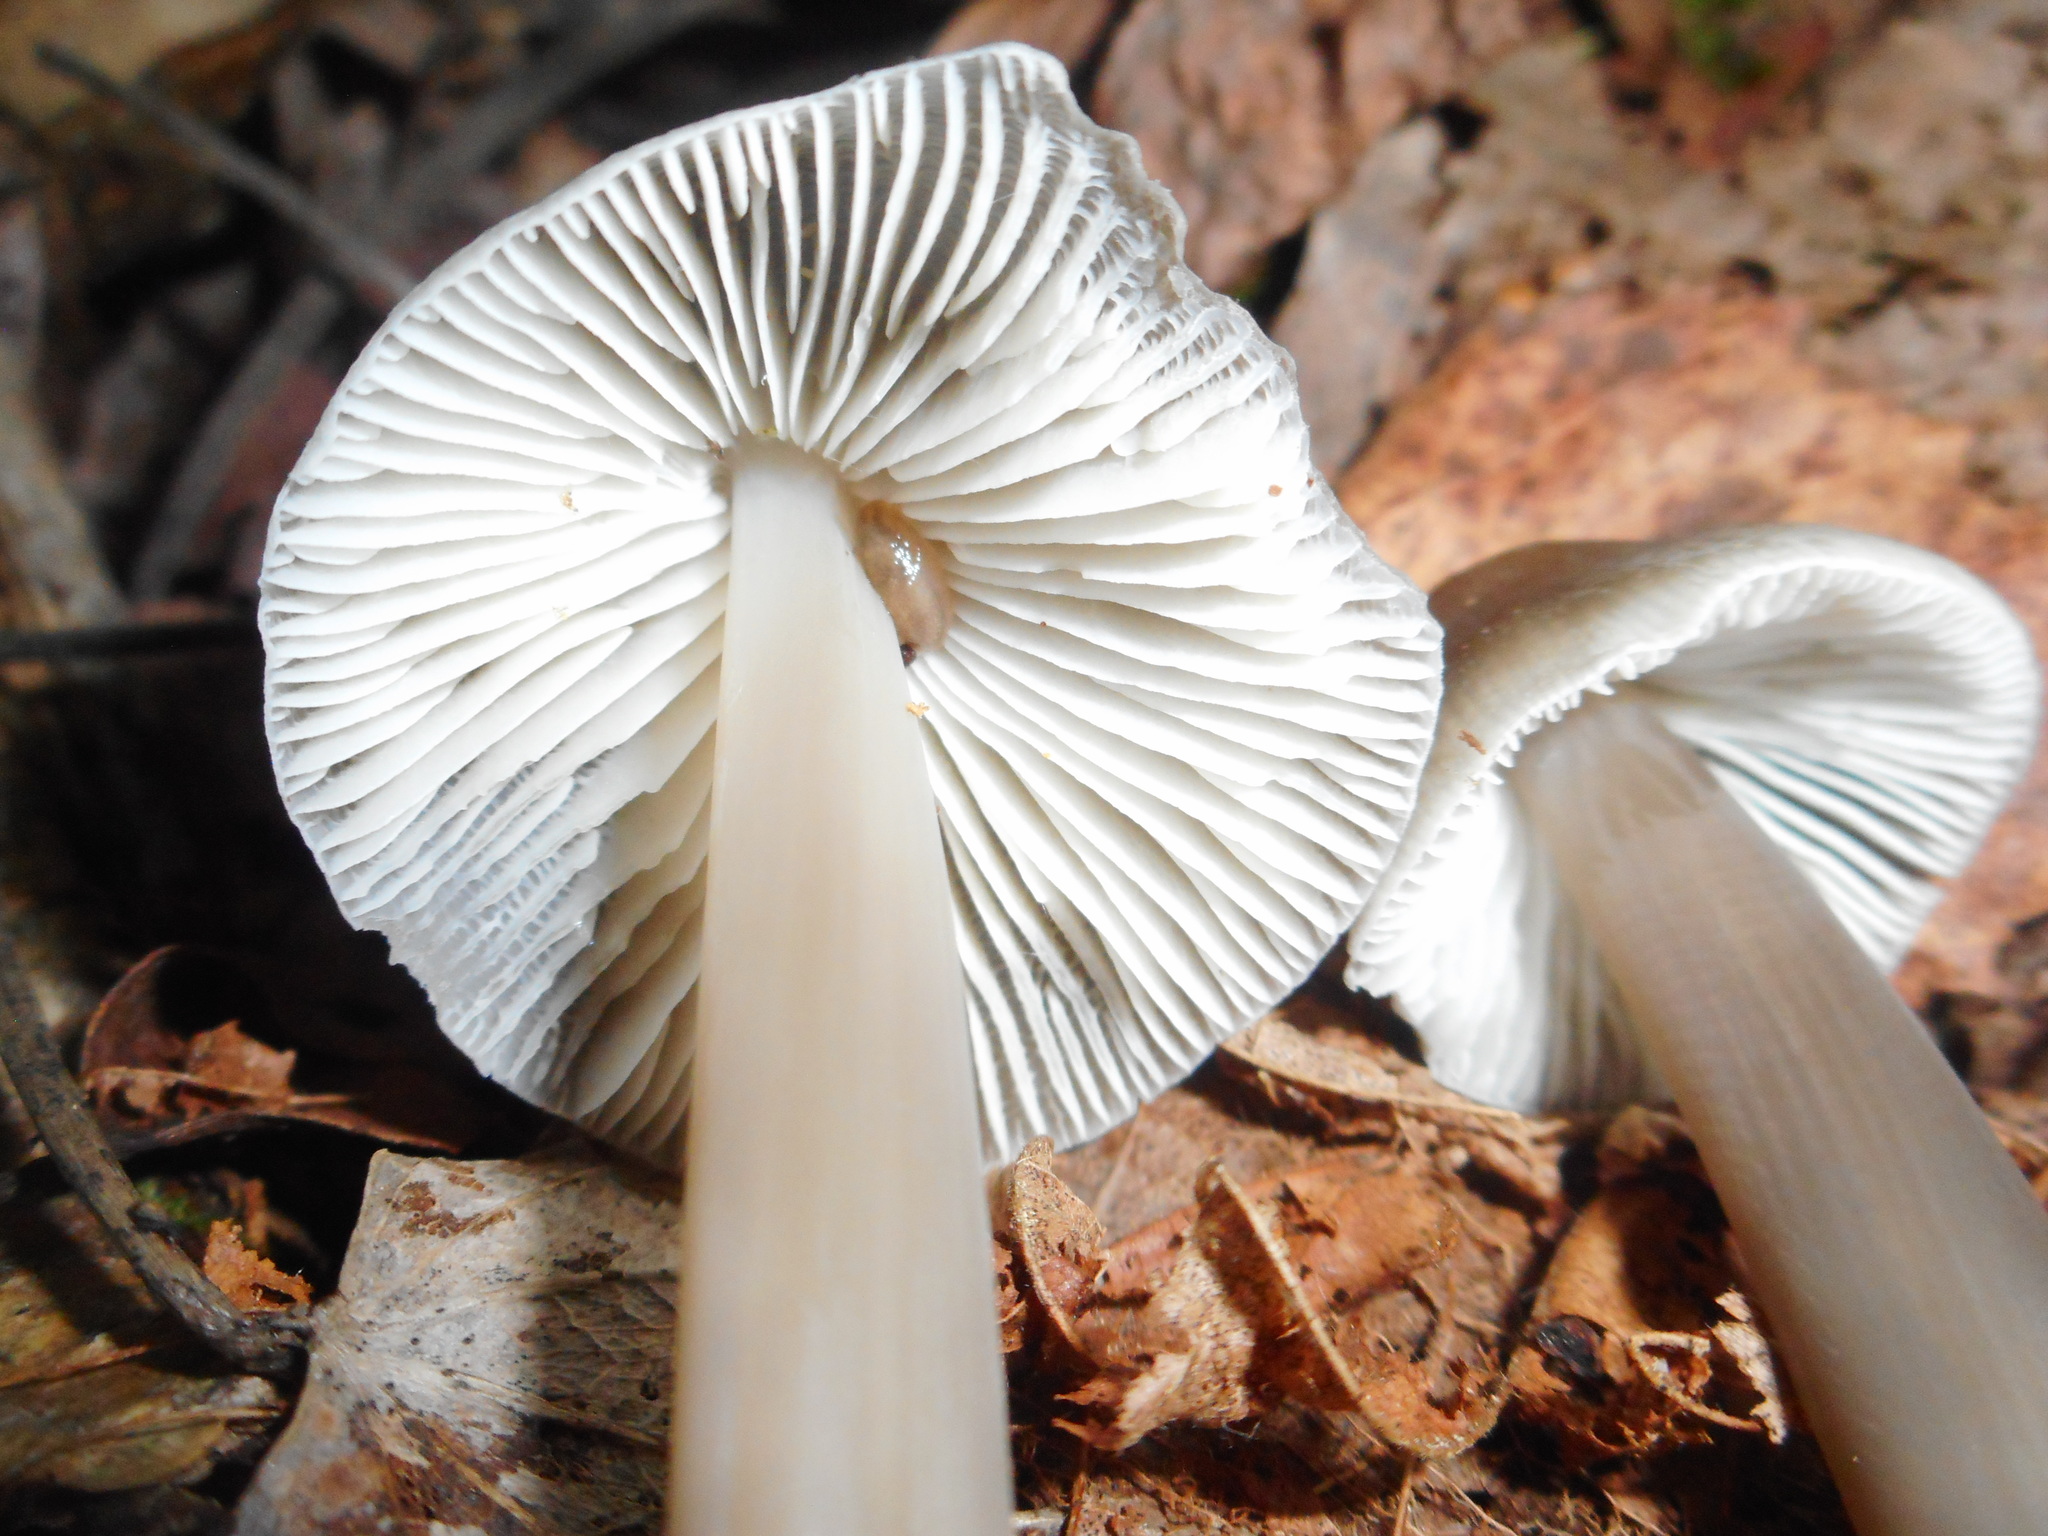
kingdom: Fungi
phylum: Basidiomycota
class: Agaricomycetes
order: Agaricales
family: Mycenaceae
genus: Mycena
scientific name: Mycena galericulata
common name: Bonnet mycena
